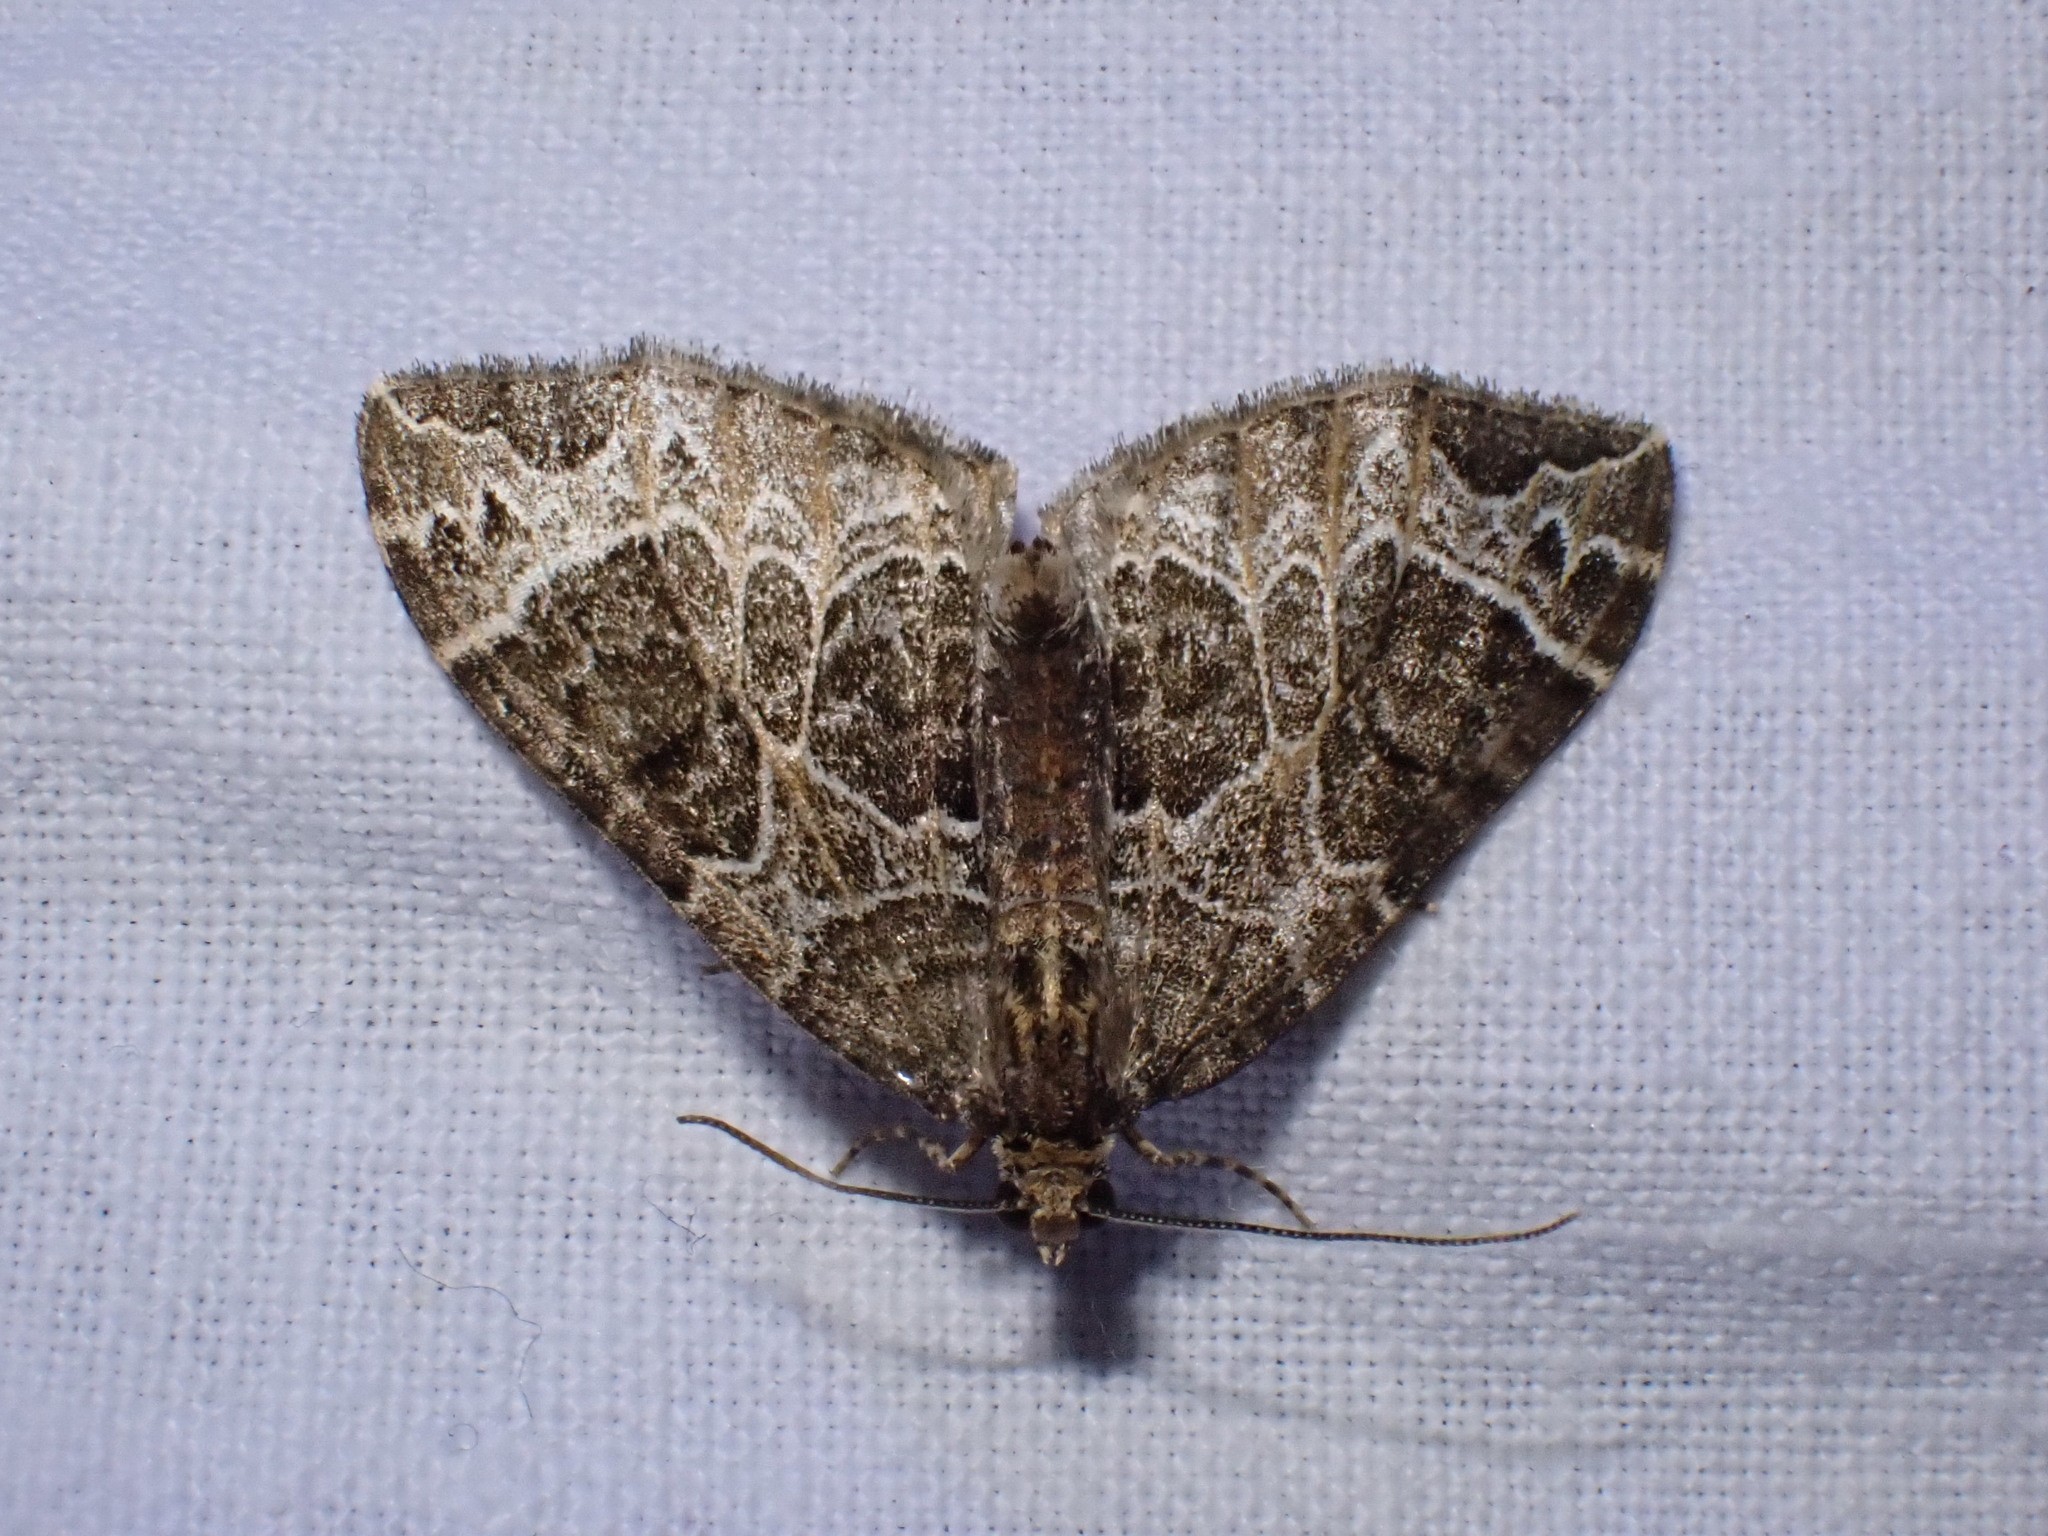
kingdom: Animalia
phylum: Arthropoda
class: Insecta
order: Lepidoptera
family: Geometridae
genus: Ecliptopera
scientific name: Ecliptopera silaceata
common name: Small phoenix
